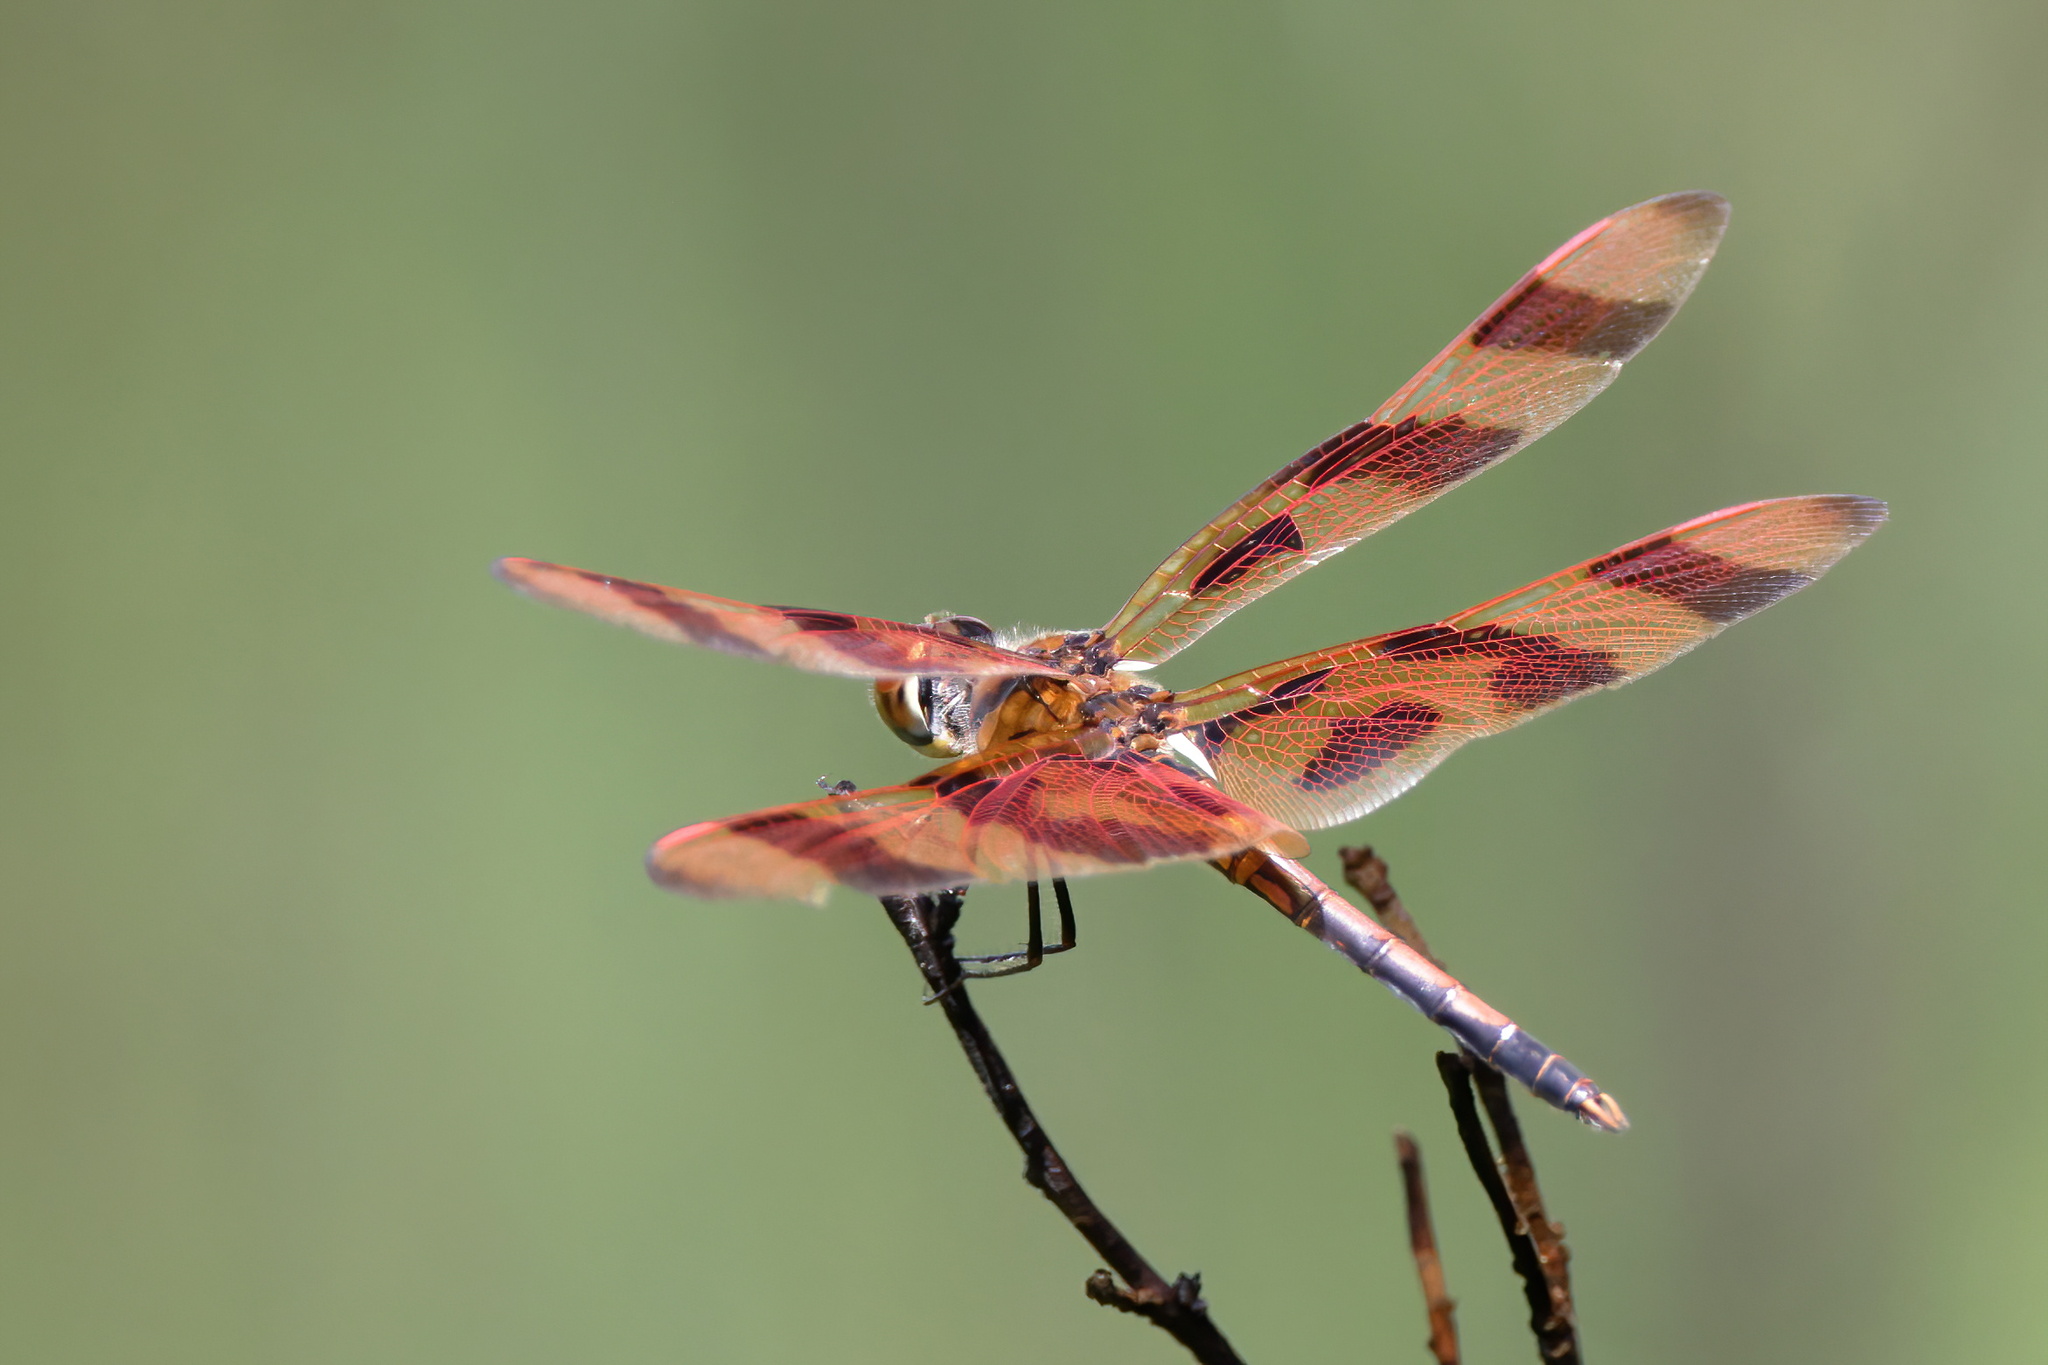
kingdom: Animalia
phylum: Arthropoda
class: Insecta
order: Odonata
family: Libellulidae
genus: Celithemis
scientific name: Celithemis eponina
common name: Halloween pennant
